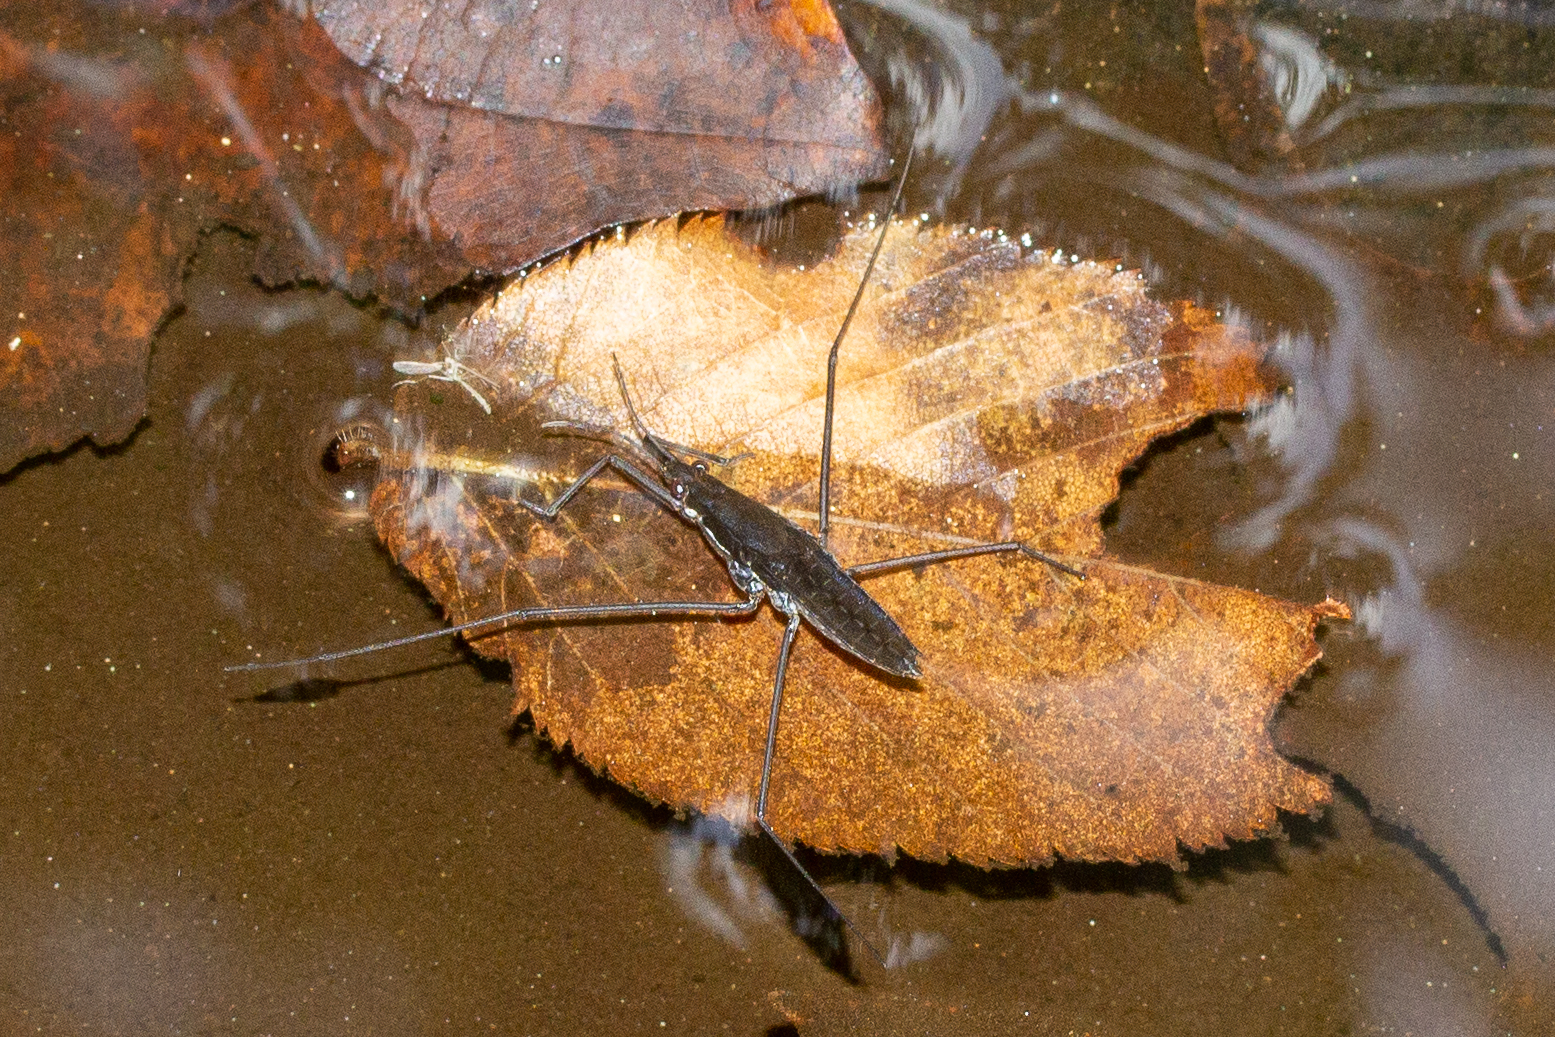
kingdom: Animalia
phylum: Arthropoda
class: Insecta
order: Hemiptera
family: Gerridae
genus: Aquarius
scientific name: Aquarius remigis
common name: Common water strider
